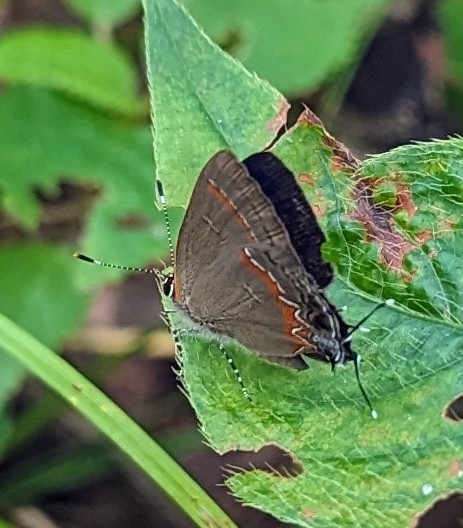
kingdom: Animalia
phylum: Arthropoda
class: Insecta
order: Lepidoptera
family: Lycaenidae
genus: Calycopis
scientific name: Calycopis cecrops
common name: Red-banded hairstreak
